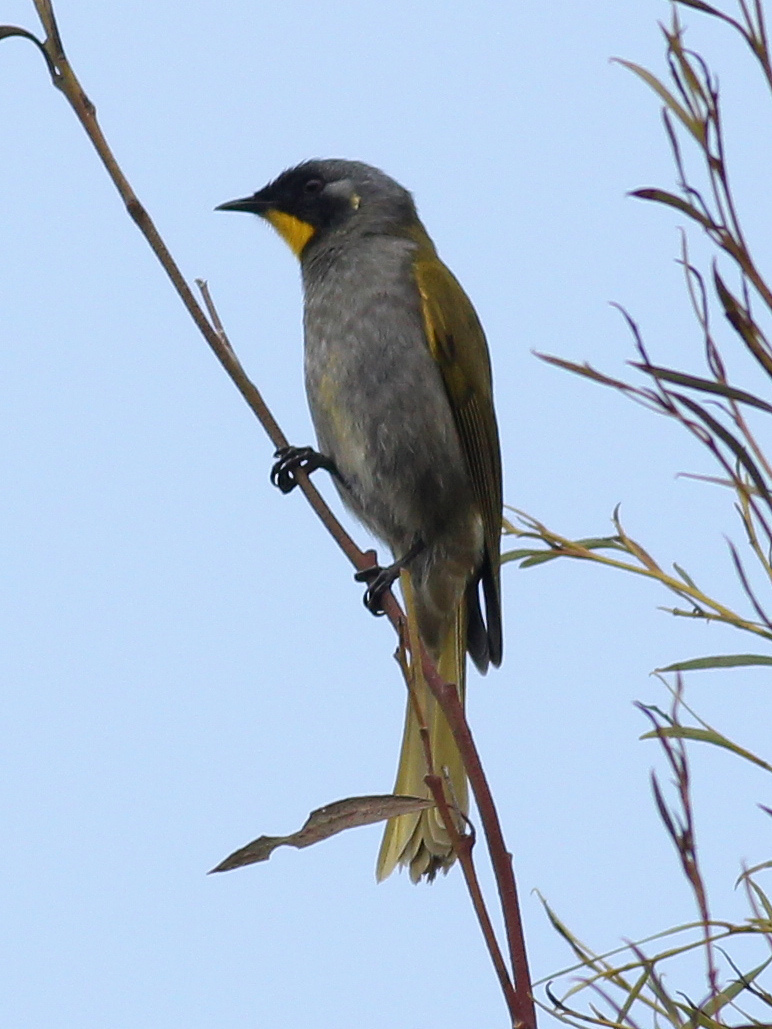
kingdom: Animalia
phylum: Chordata
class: Aves
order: Passeriformes
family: Meliphagidae
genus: Nesoptilotis
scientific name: Nesoptilotis flavicollis
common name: Yellow-throated honeyeater
